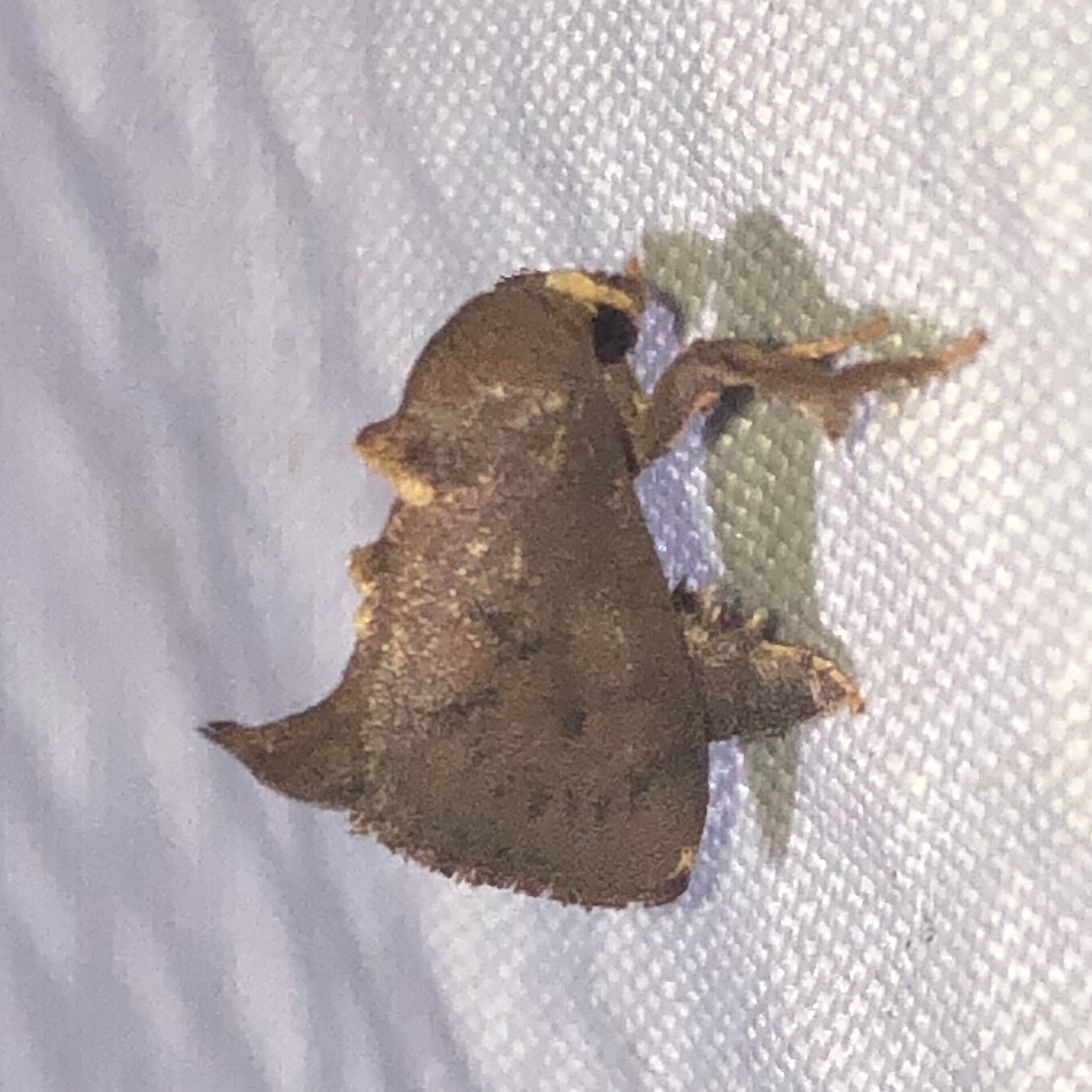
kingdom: Animalia
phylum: Arthropoda
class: Insecta
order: Lepidoptera
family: Limacodidae
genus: Tanadema
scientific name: Tanadema neutra
